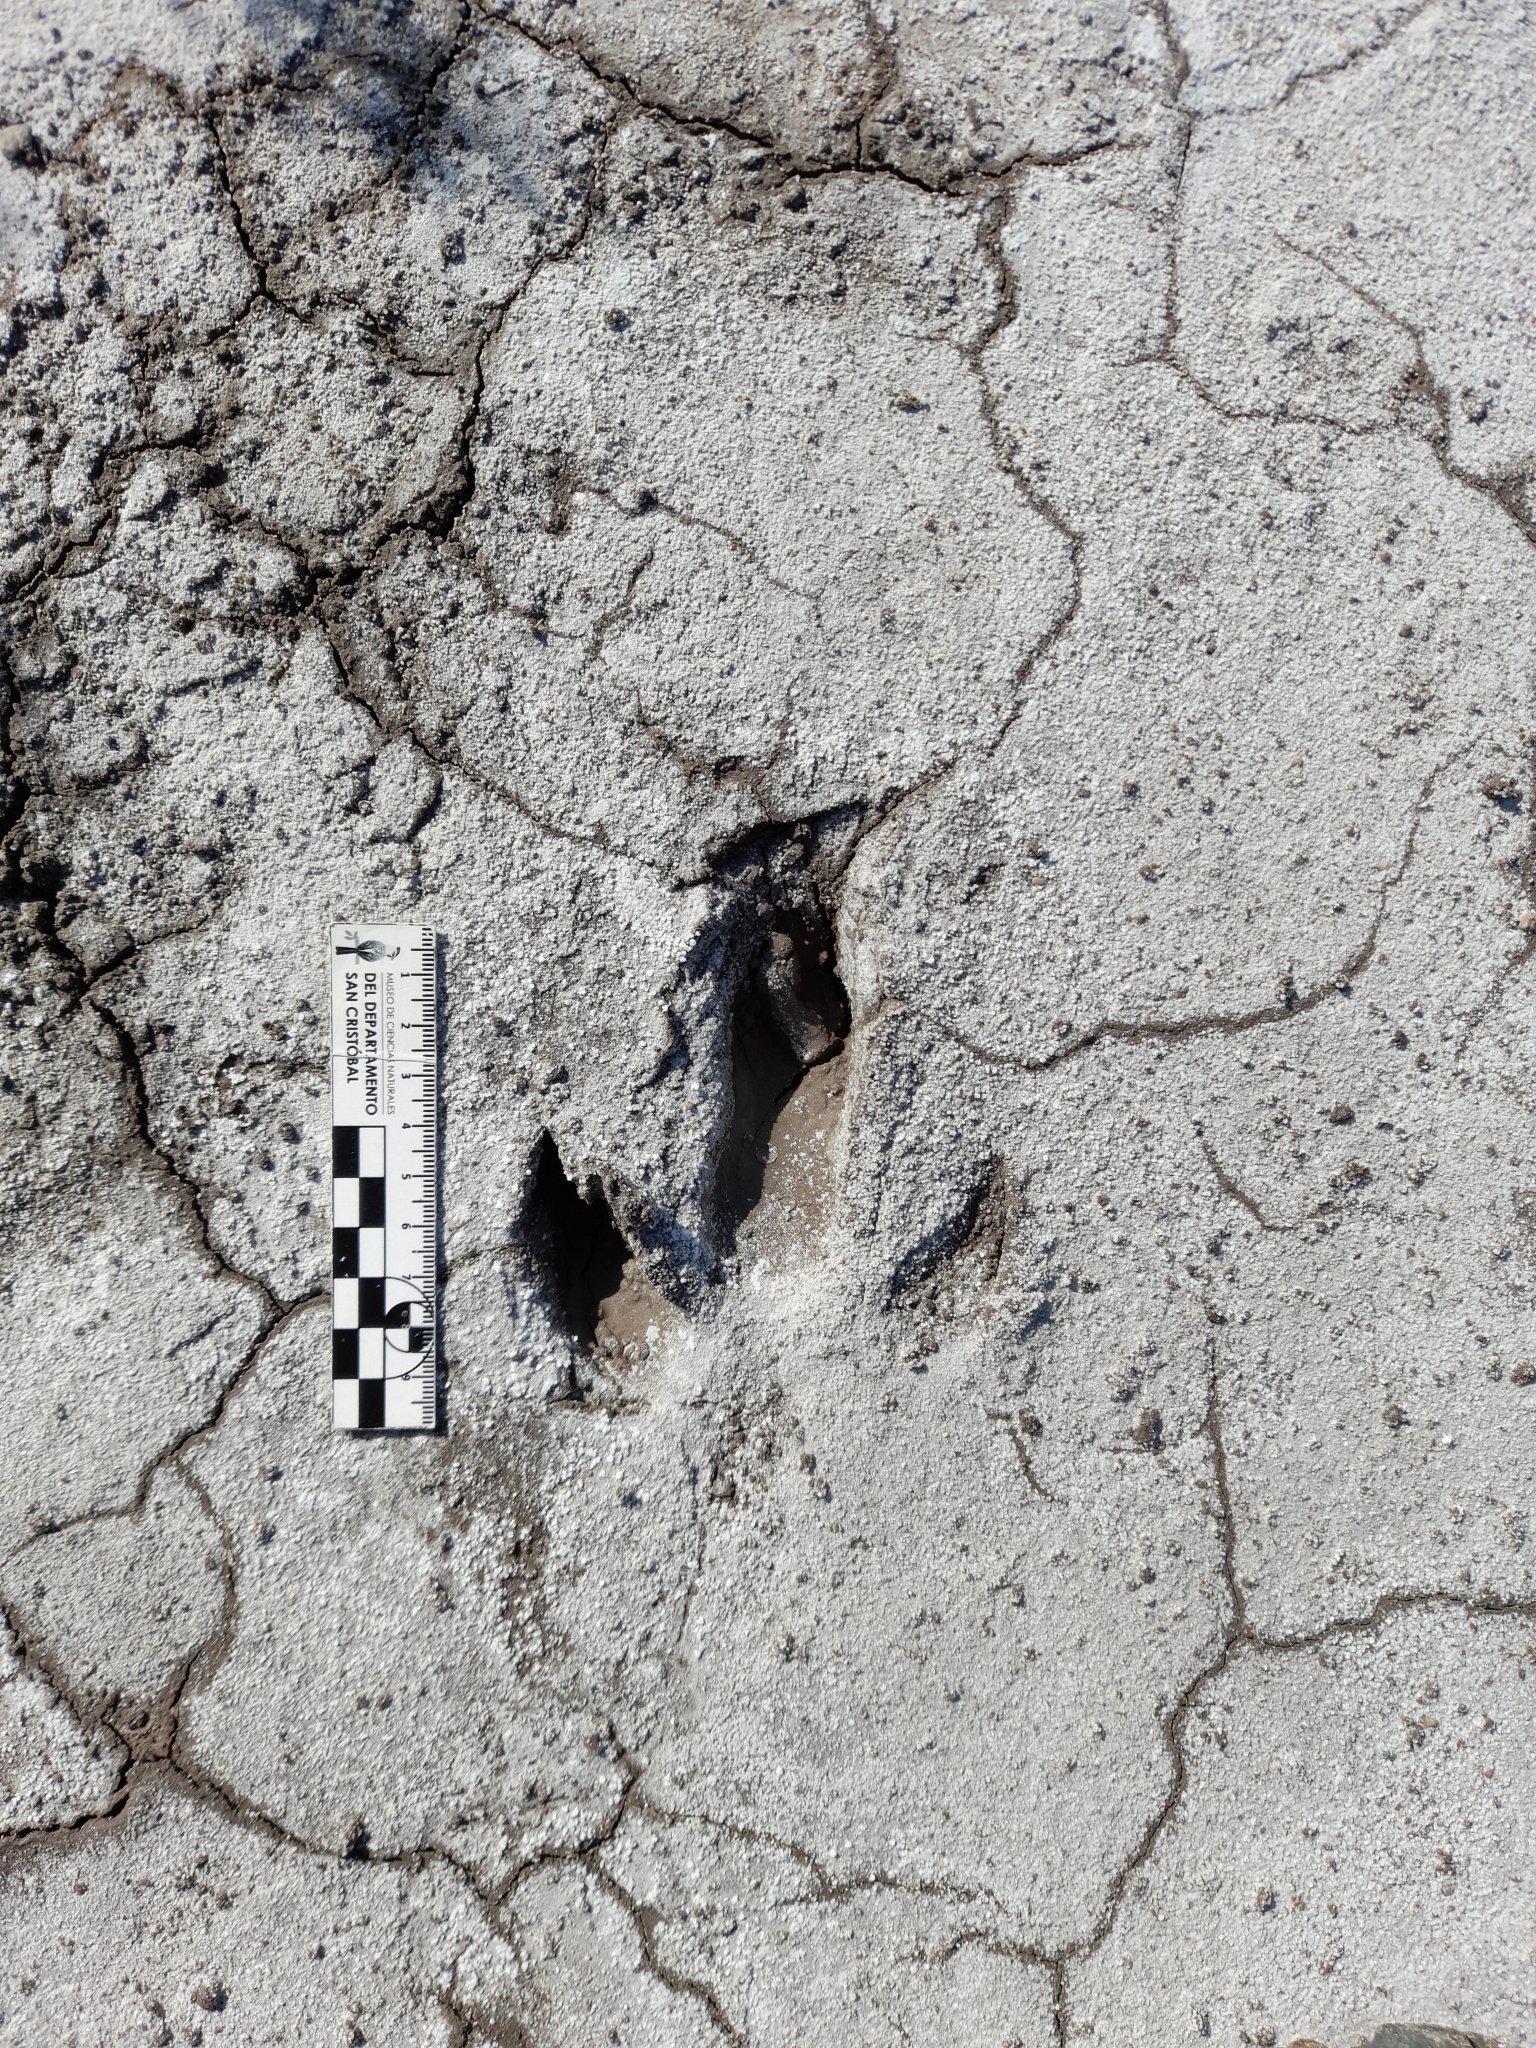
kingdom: Animalia
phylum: Chordata
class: Aves
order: Rheiformes
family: Rheidae
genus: Rhea
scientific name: Rhea americana
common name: Greater rhea
